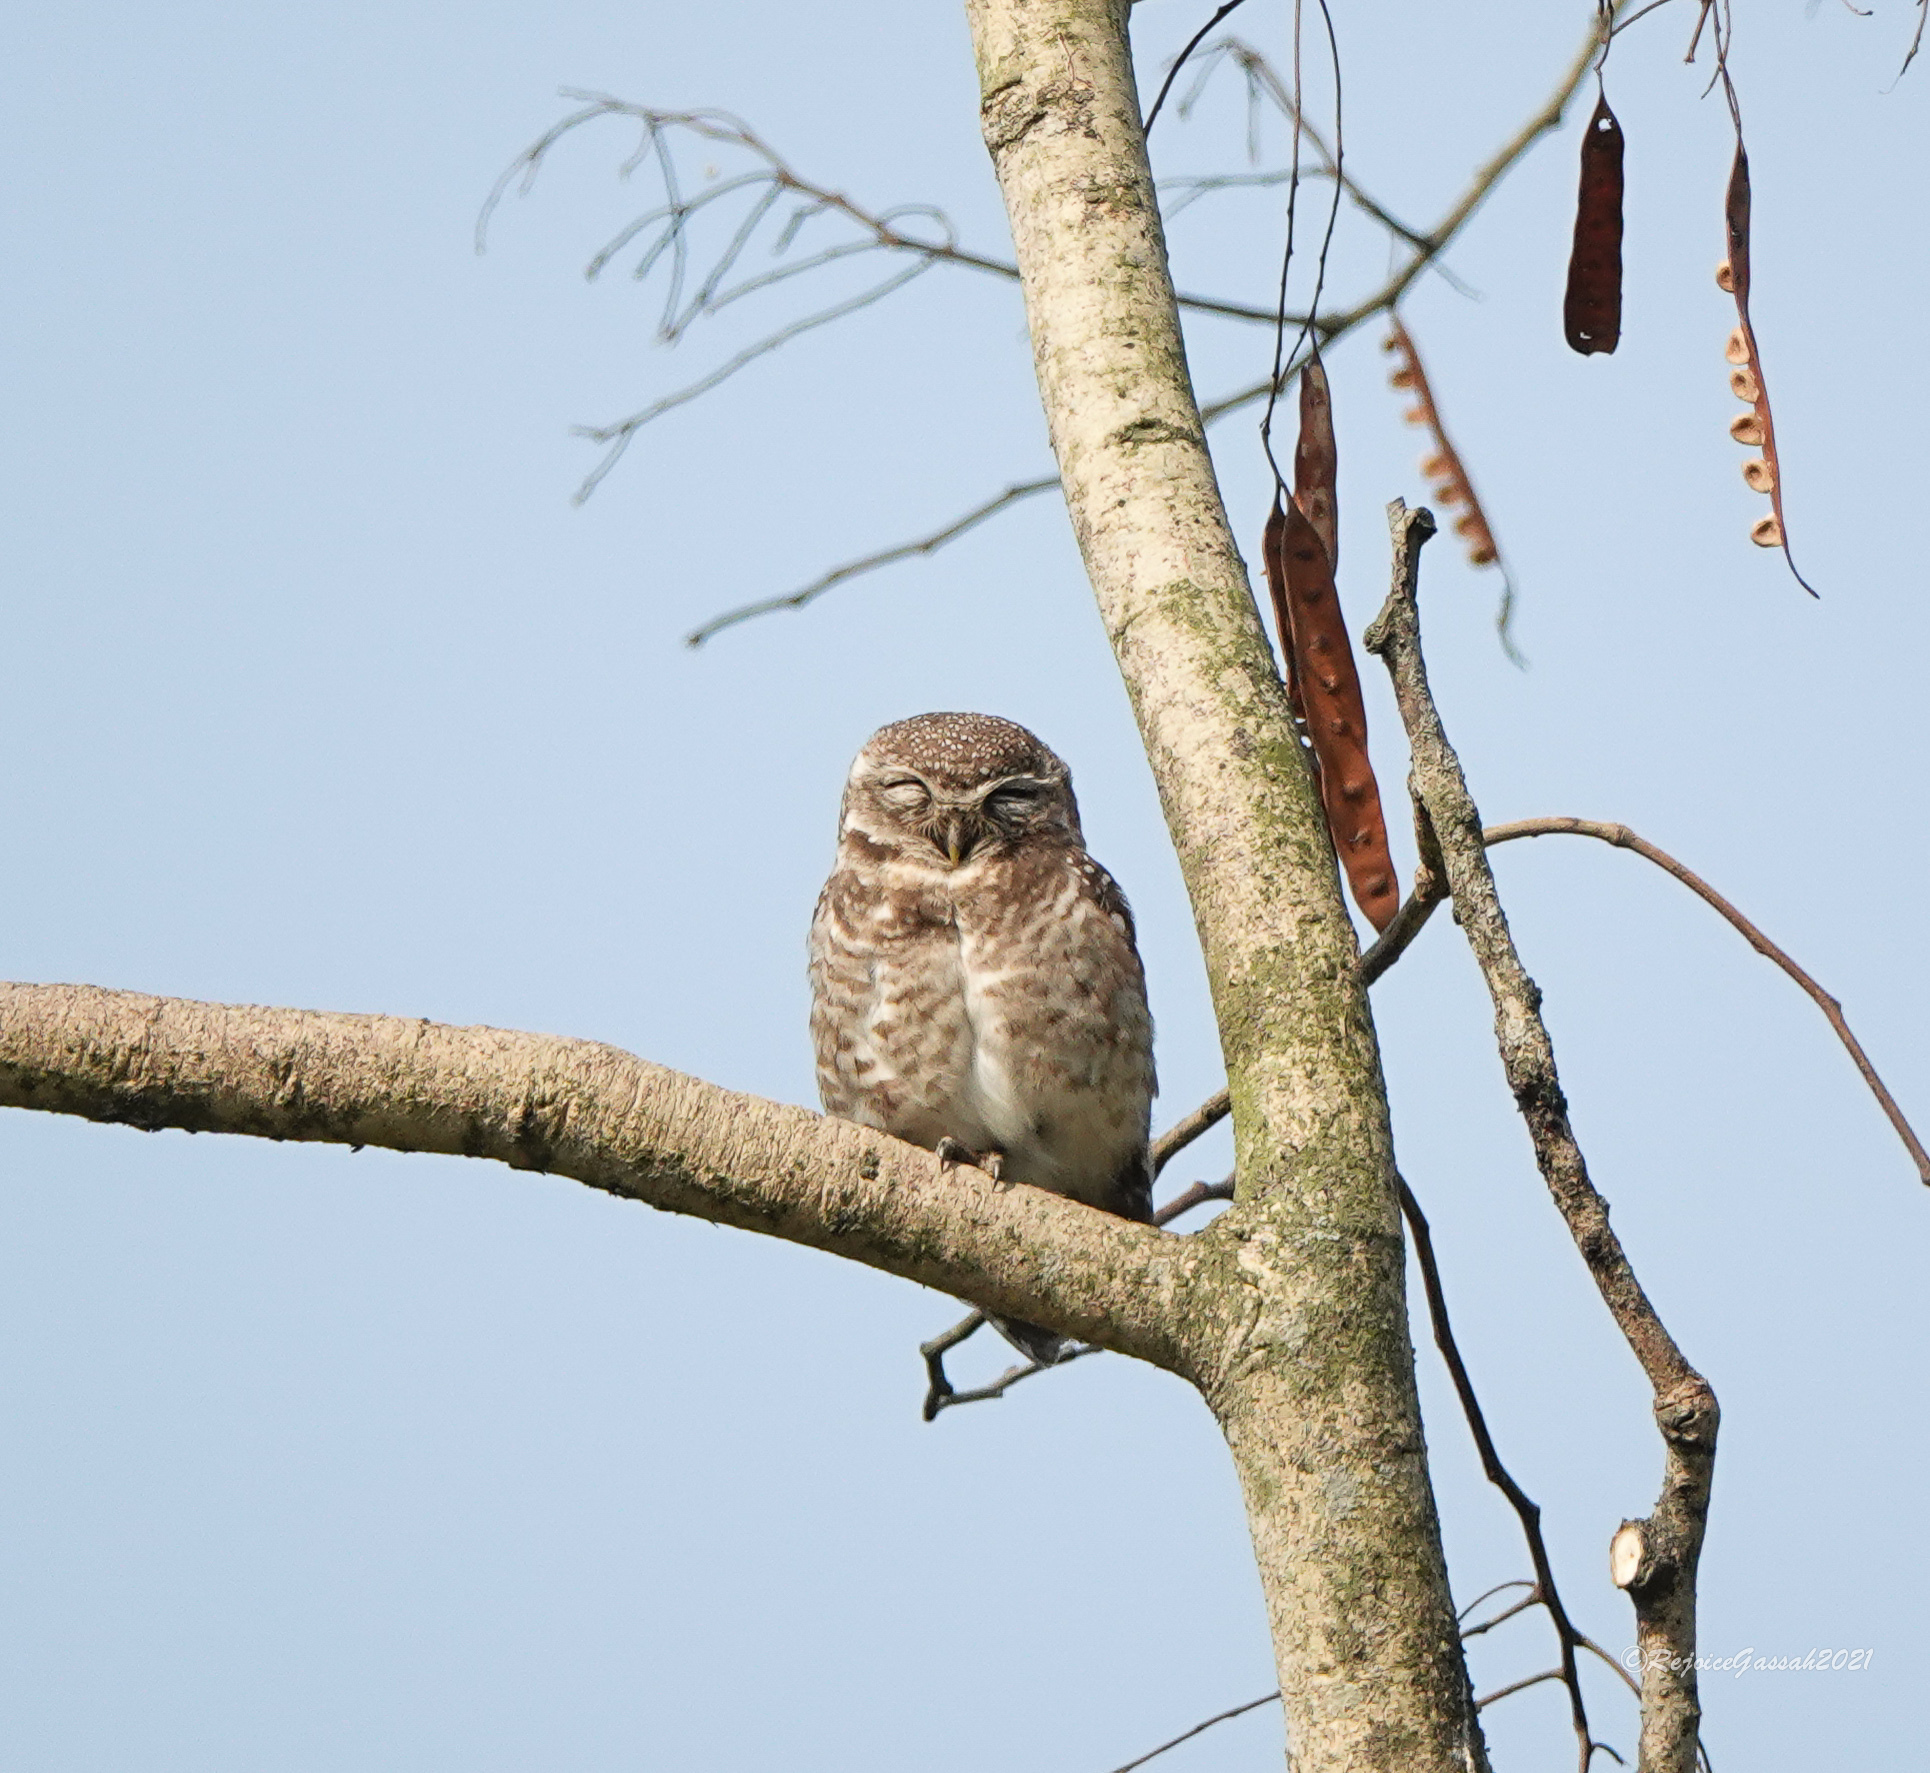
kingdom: Animalia
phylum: Chordata
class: Aves
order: Strigiformes
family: Strigidae
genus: Athene
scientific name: Athene brama
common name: Spotted owlet
